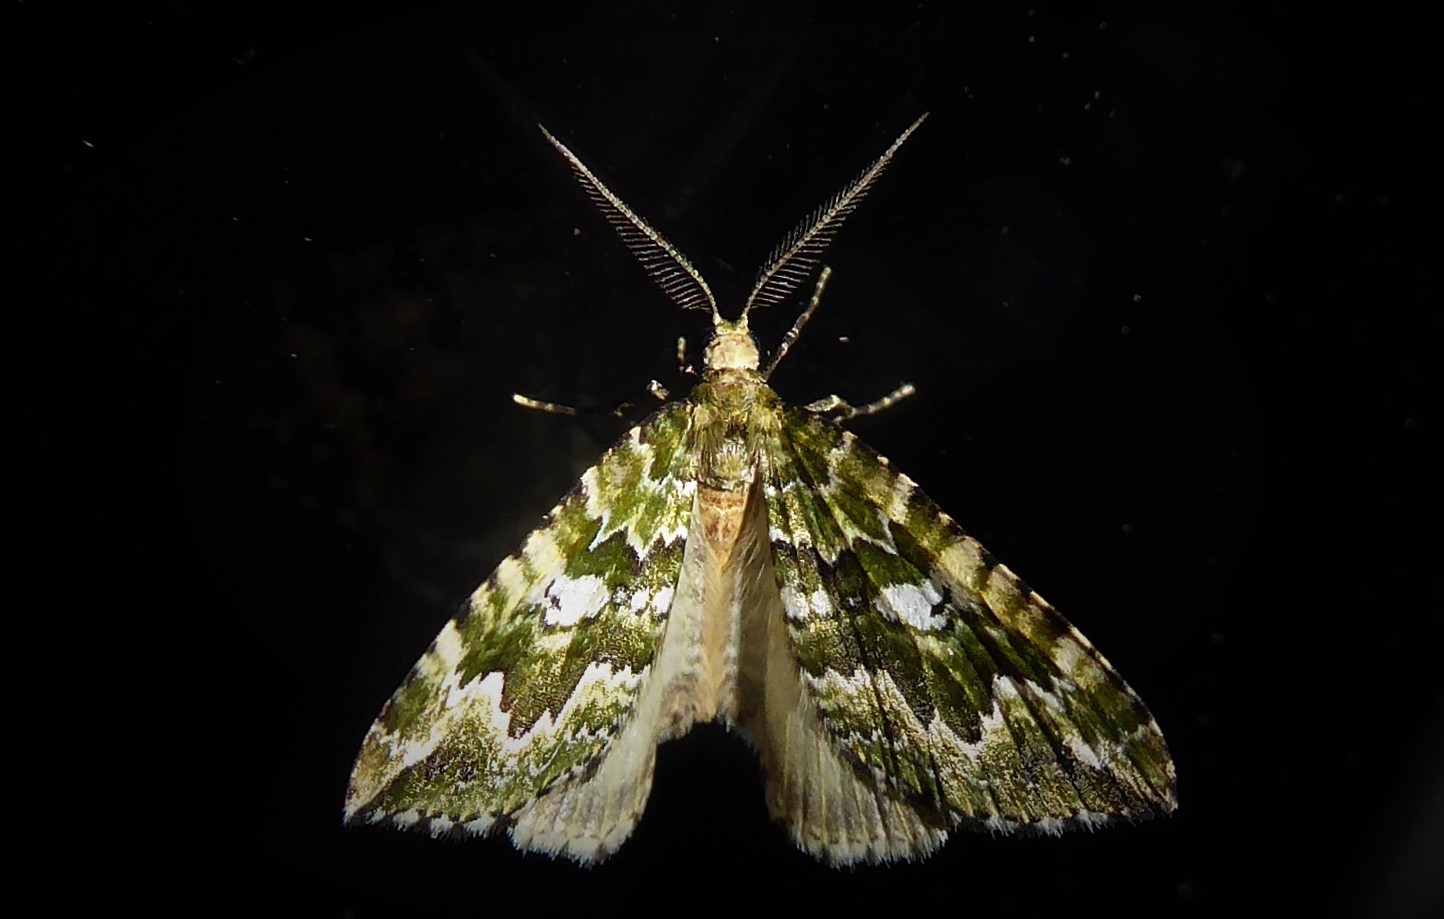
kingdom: Animalia
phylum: Arthropoda
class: Insecta
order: Lepidoptera
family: Geometridae
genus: Asaphodes
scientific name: Asaphodes beata
